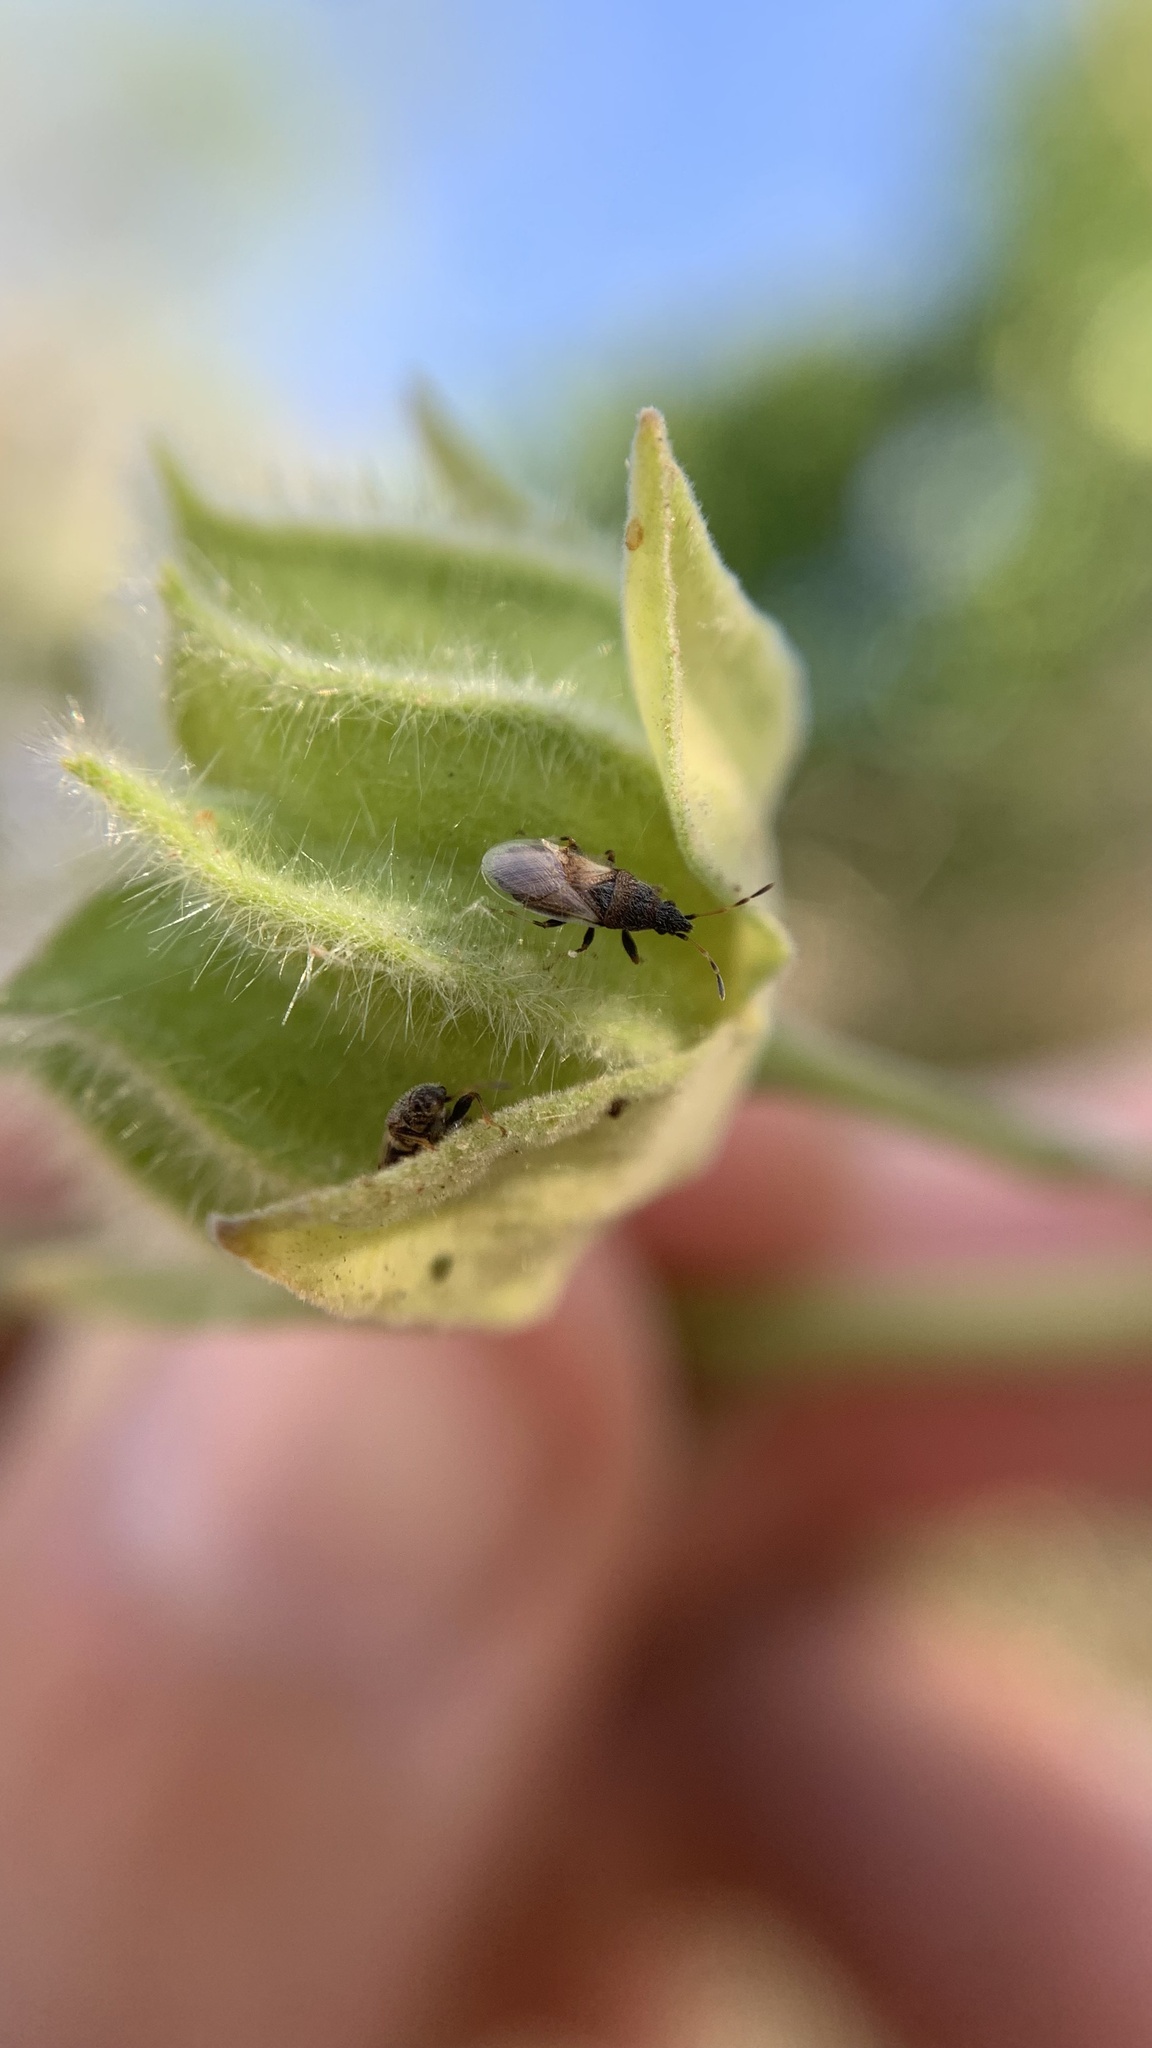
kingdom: Animalia
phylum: Arthropoda
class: Insecta
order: Hemiptera
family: Oxycarenidae
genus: Oxycarenus
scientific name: Oxycarenus hyalinipennis
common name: Cotton seed bug
